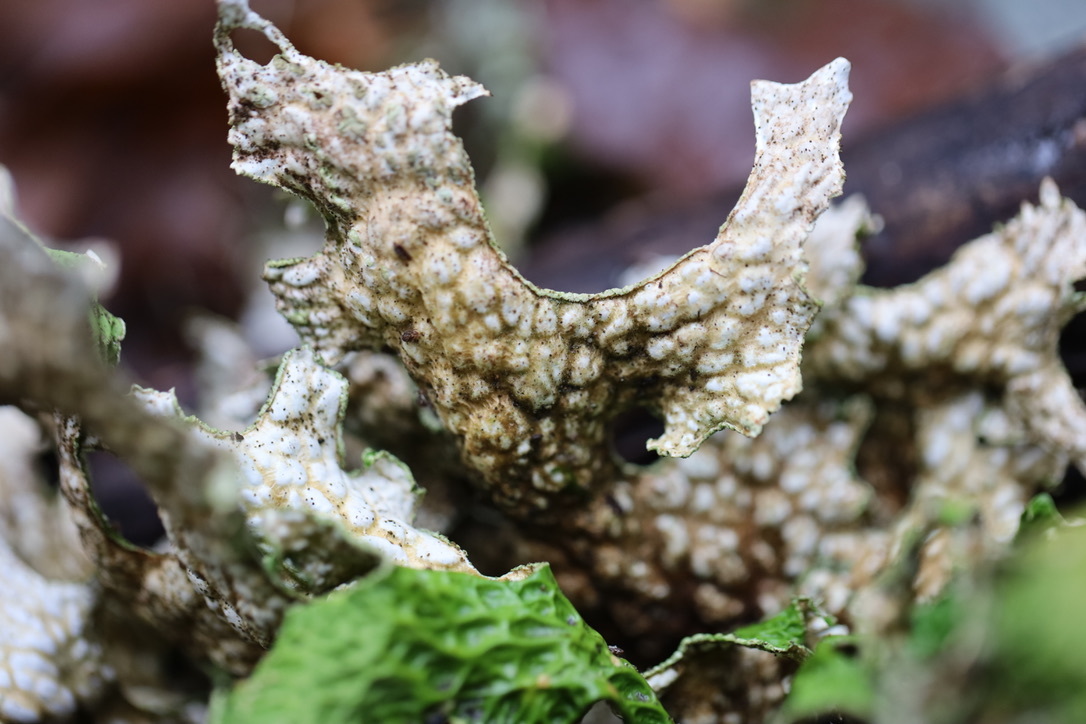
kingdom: Fungi
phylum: Ascomycota
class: Lecanoromycetes
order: Peltigerales
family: Lobariaceae
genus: Lobaria
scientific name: Lobaria pulmonaria
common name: Lungwort
